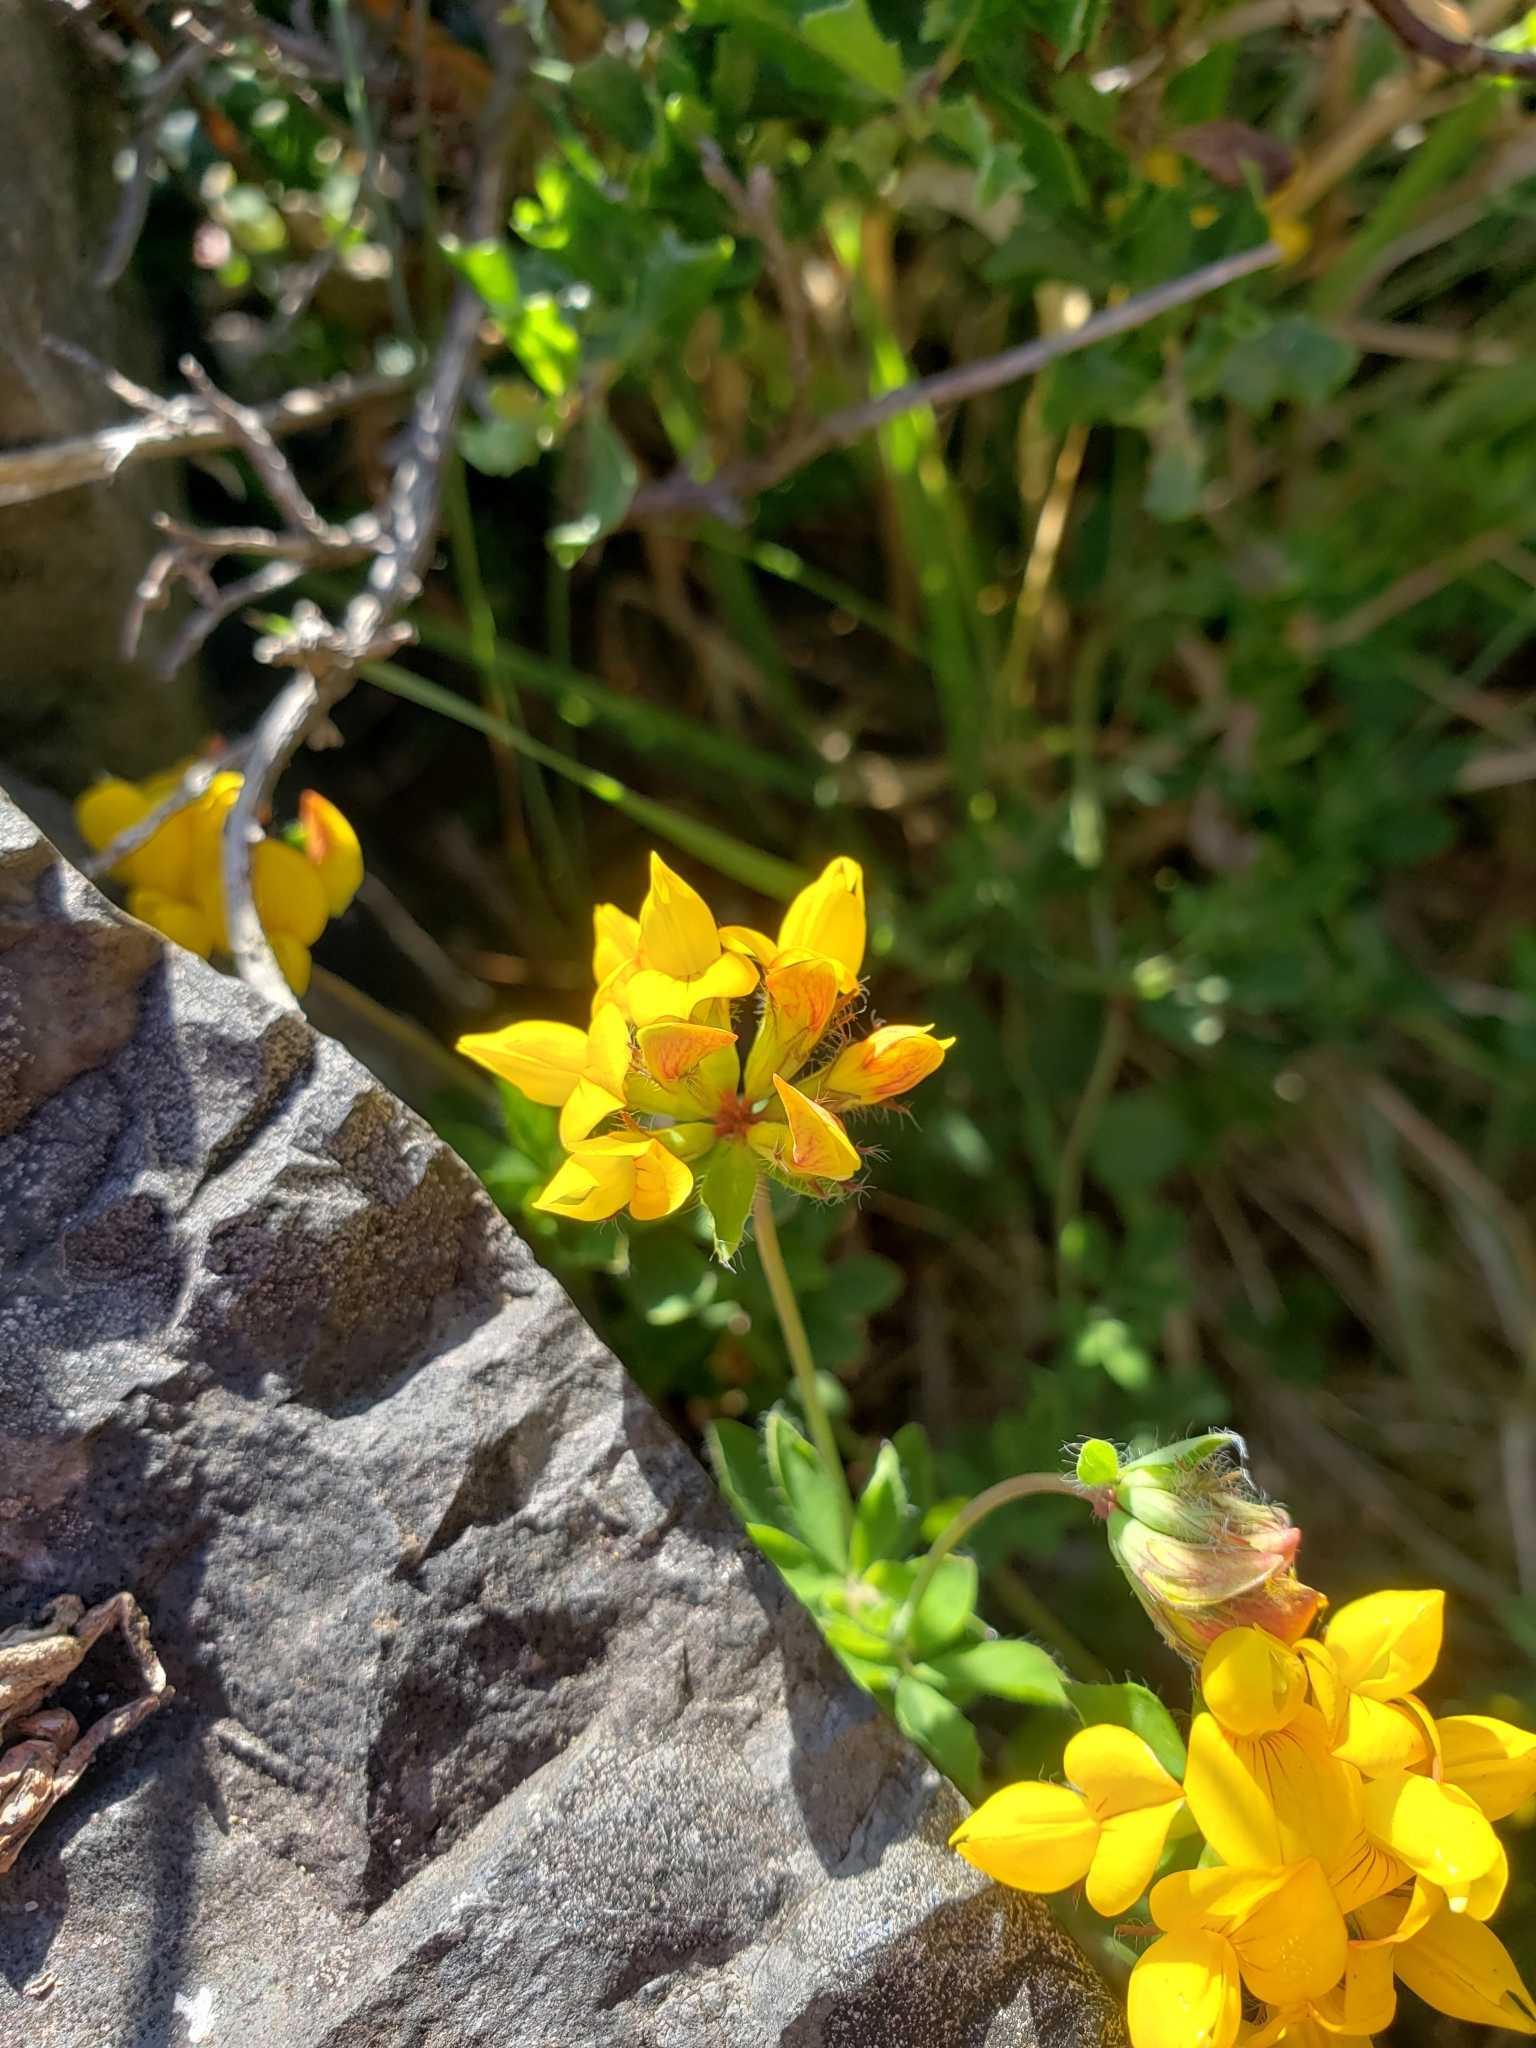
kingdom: Plantae
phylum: Tracheophyta
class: Magnoliopsida
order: Fabales
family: Fabaceae
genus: Lotus
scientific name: Lotus pedunculatus
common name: Greater birdsfoot-trefoil
